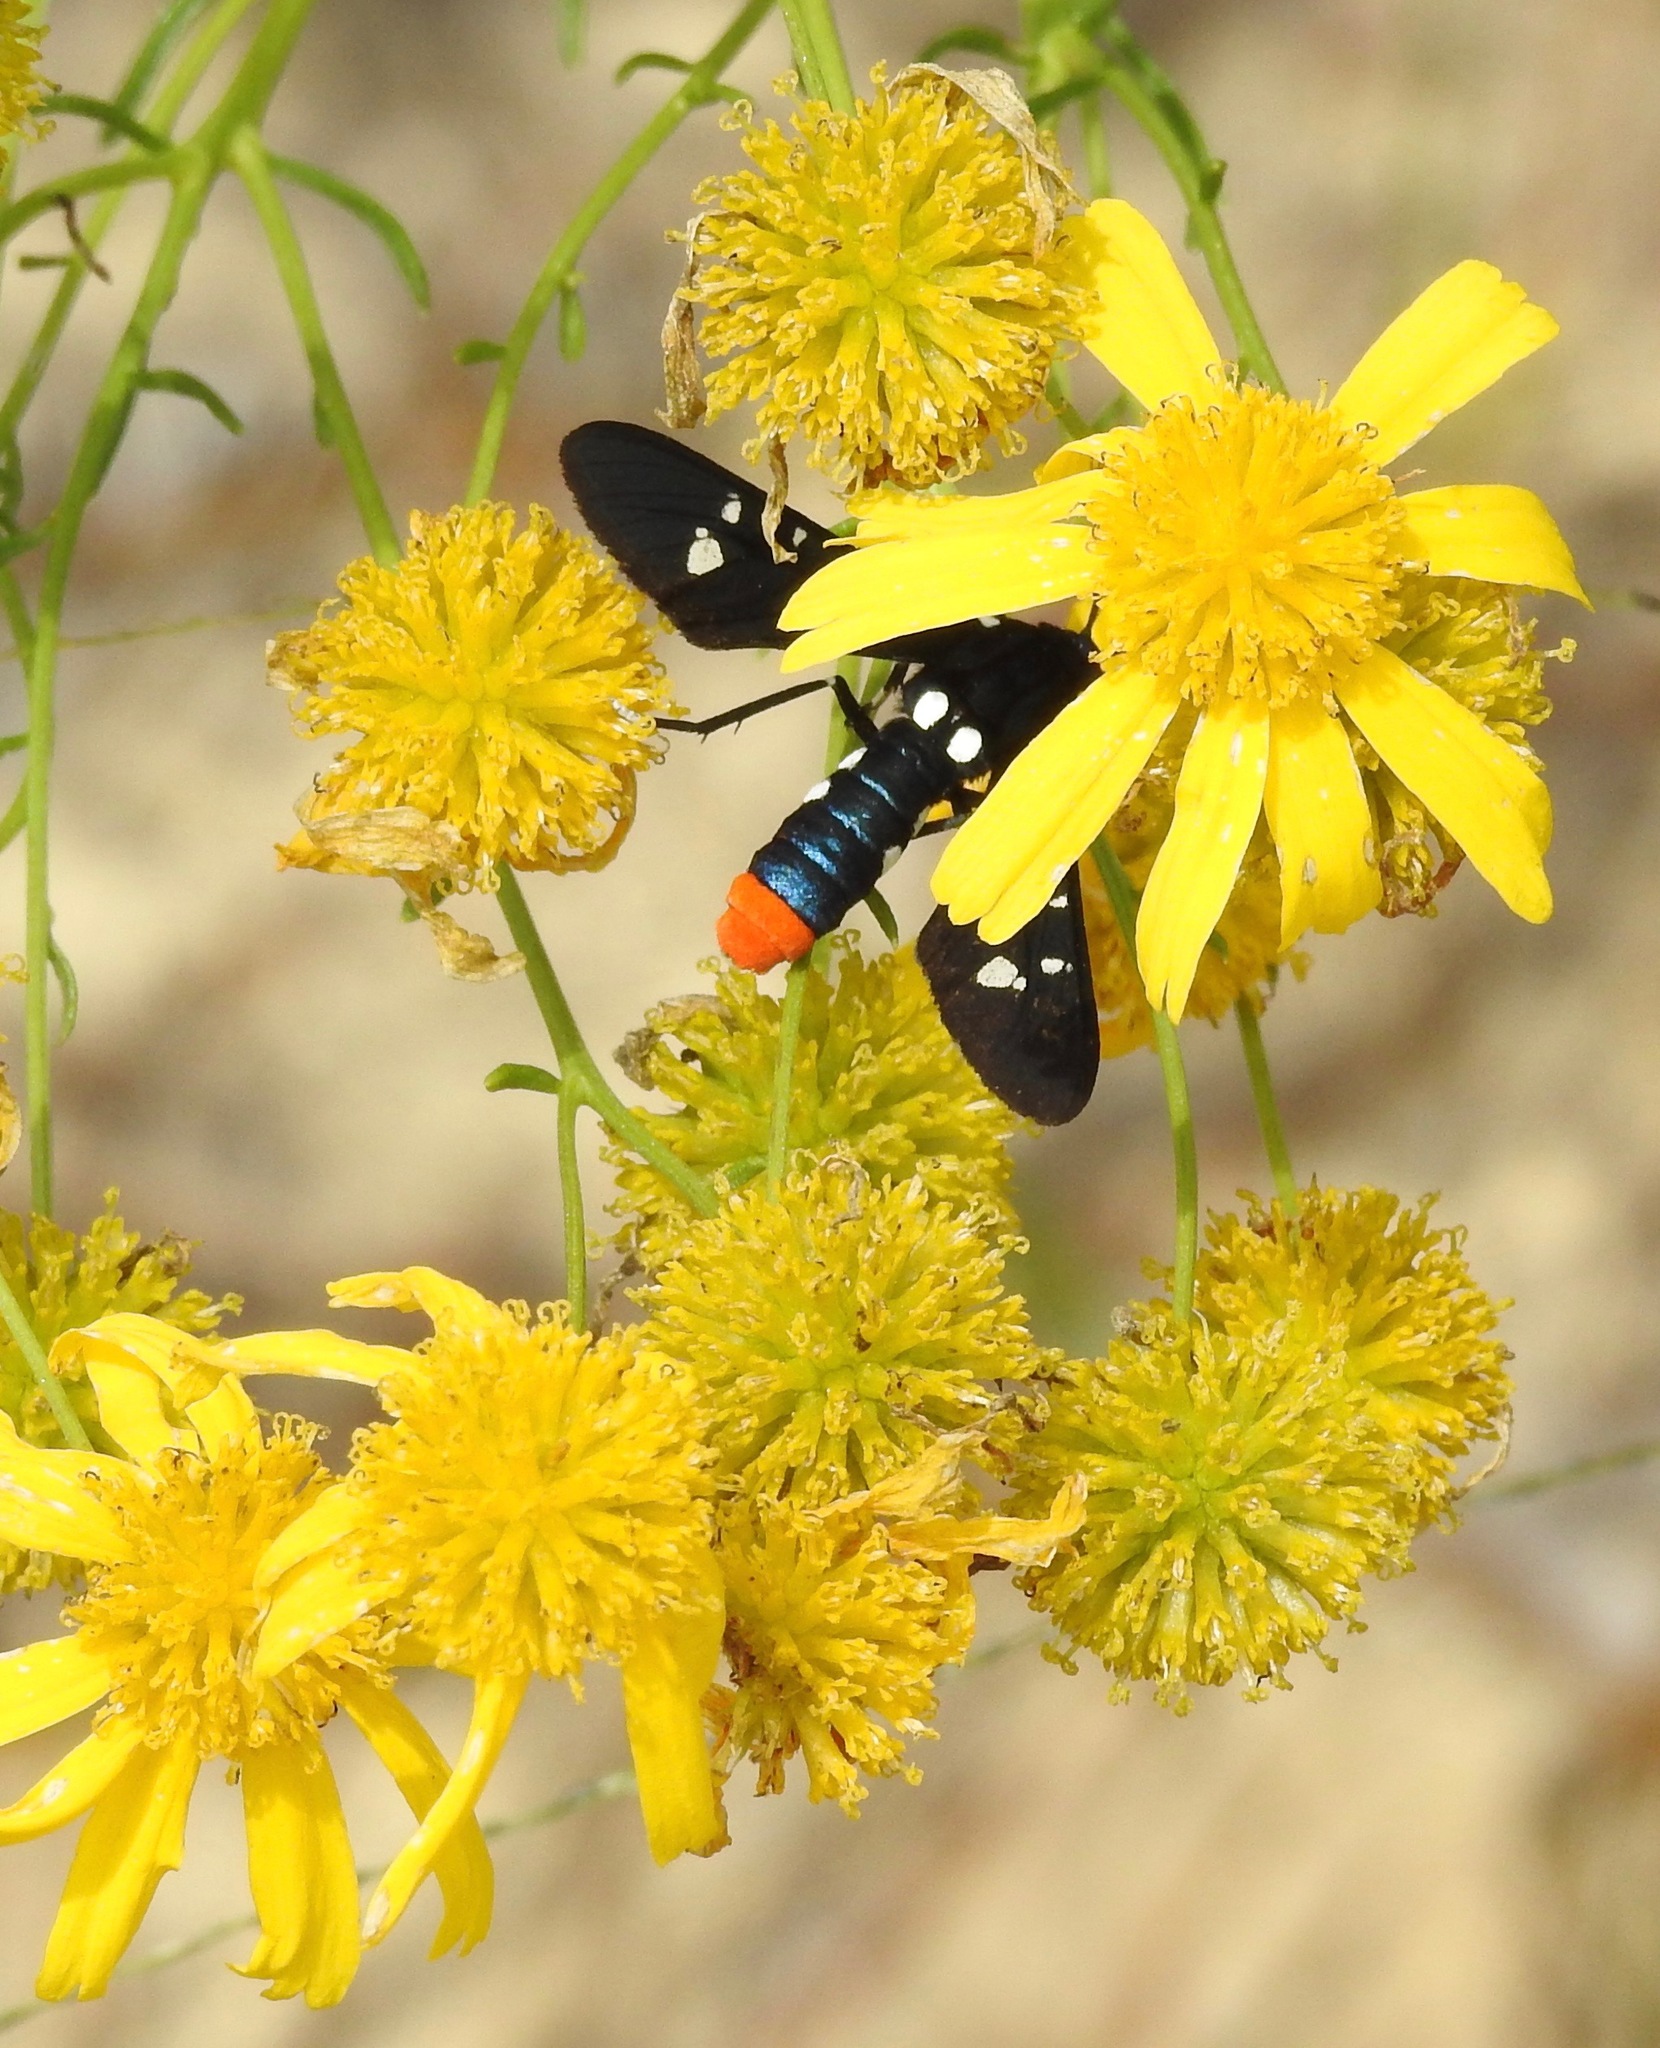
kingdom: Animalia
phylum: Arthropoda
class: Insecta
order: Lepidoptera
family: Erebidae
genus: Syntomeida
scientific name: Syntomeida epilais
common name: Polka-dot wasp moth
